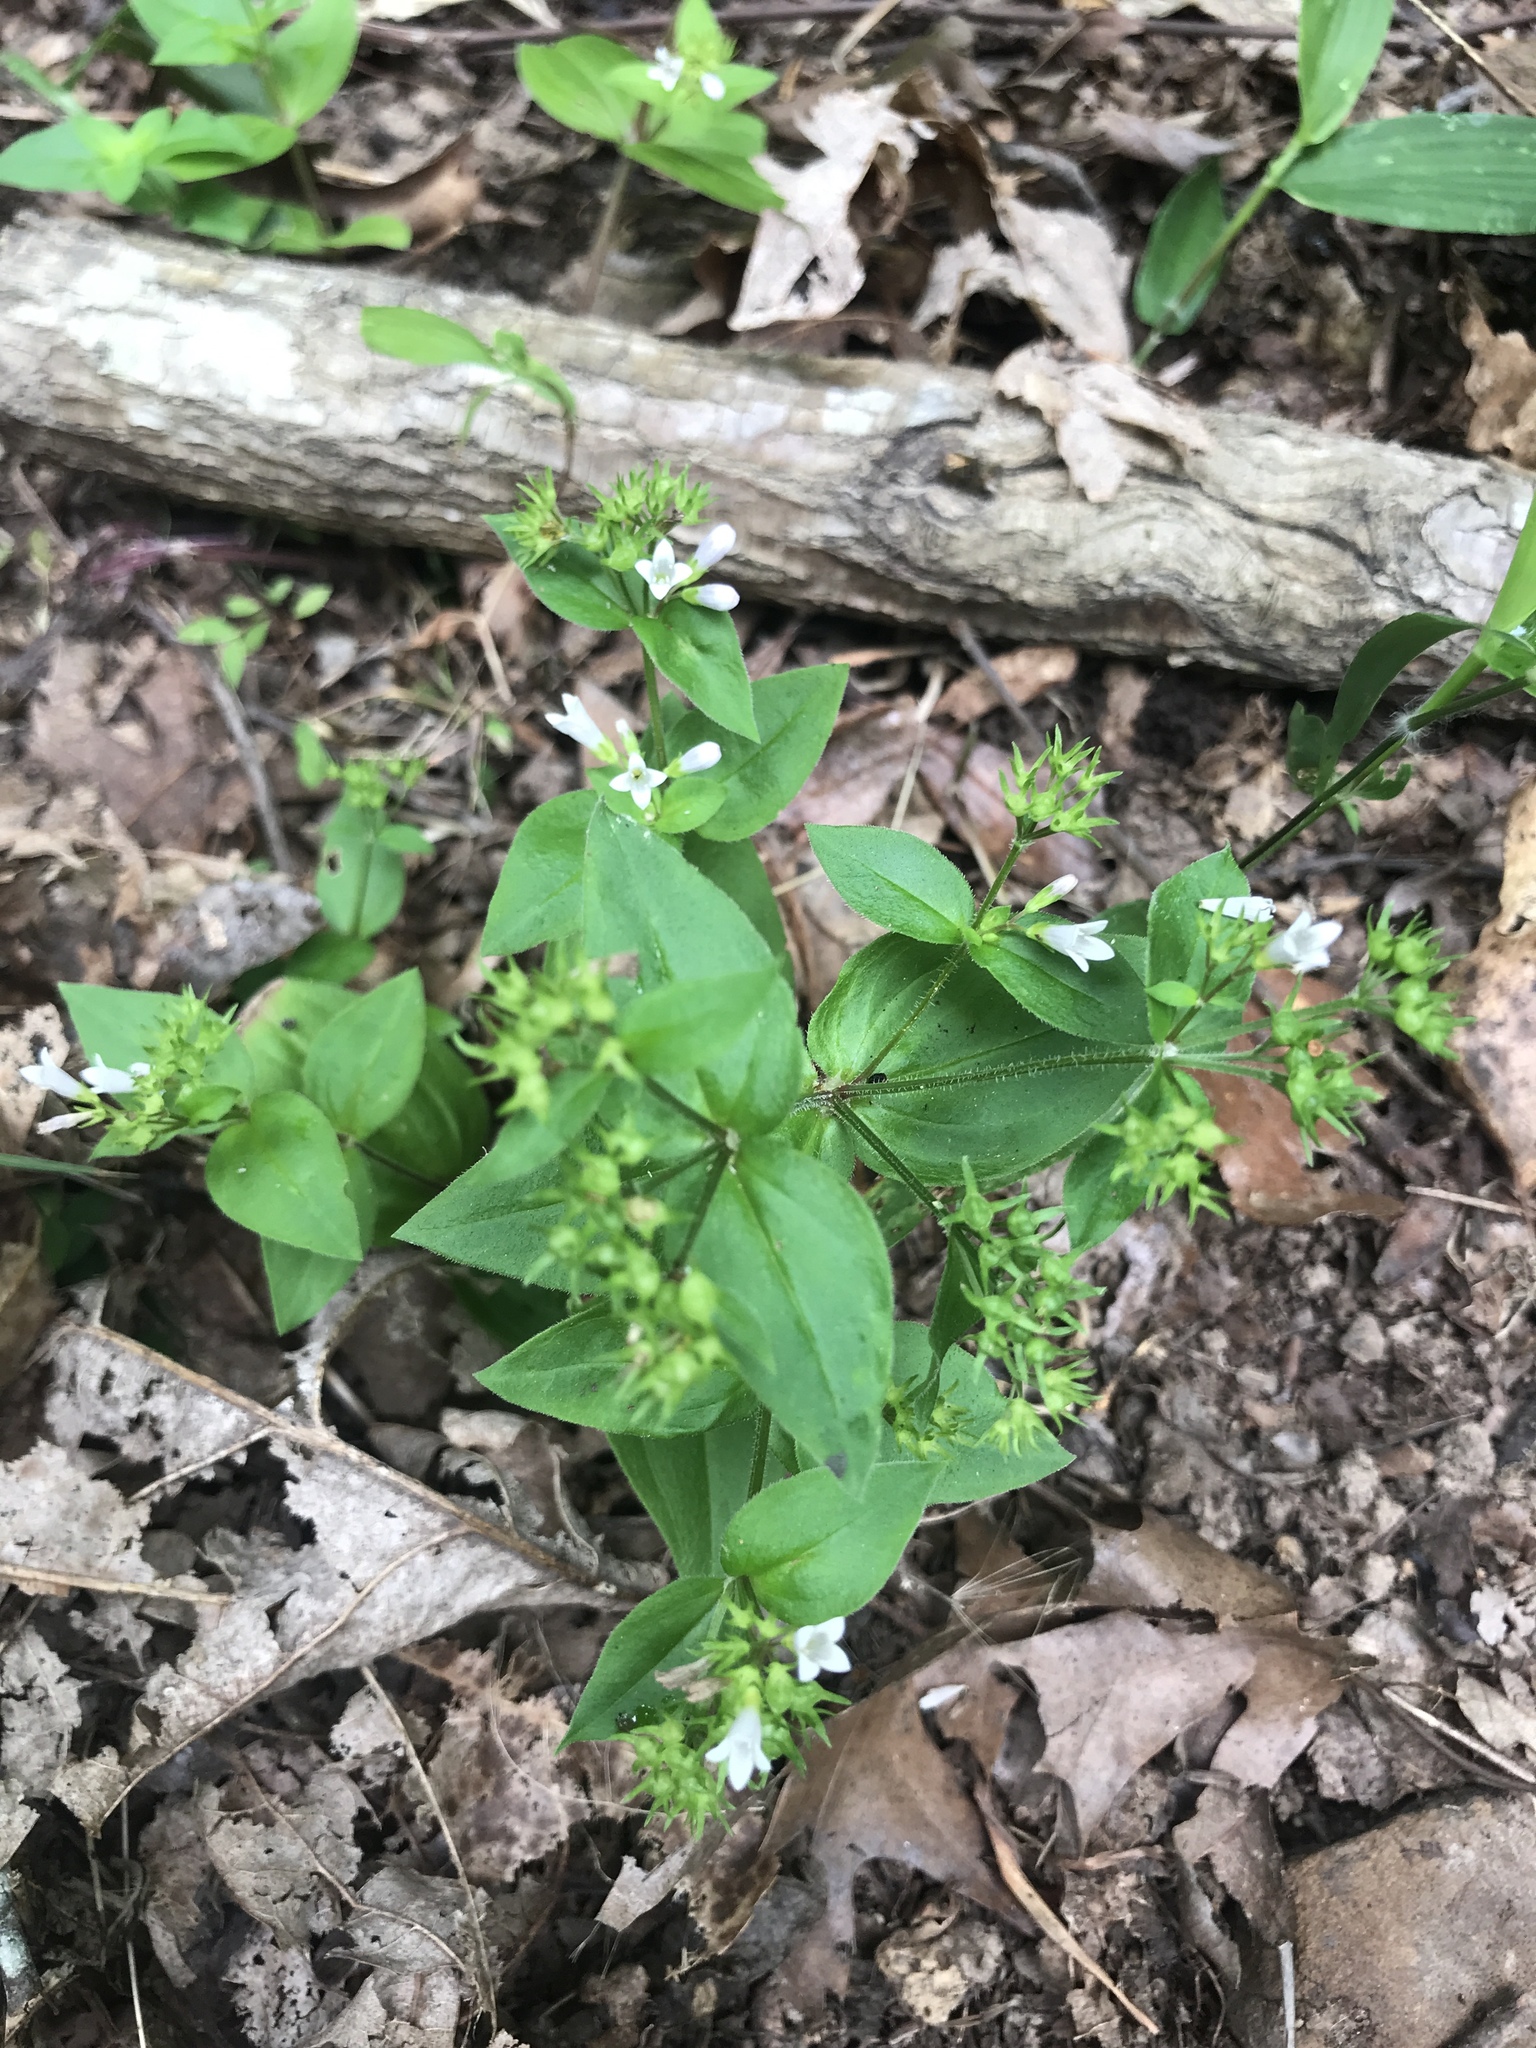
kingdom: Plantae
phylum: Tracheophyta
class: Magnoliopsida
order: Gentianales
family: Rubiaceae
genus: Houstonia
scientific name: Houstonia purpurea
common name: Summer bluet
